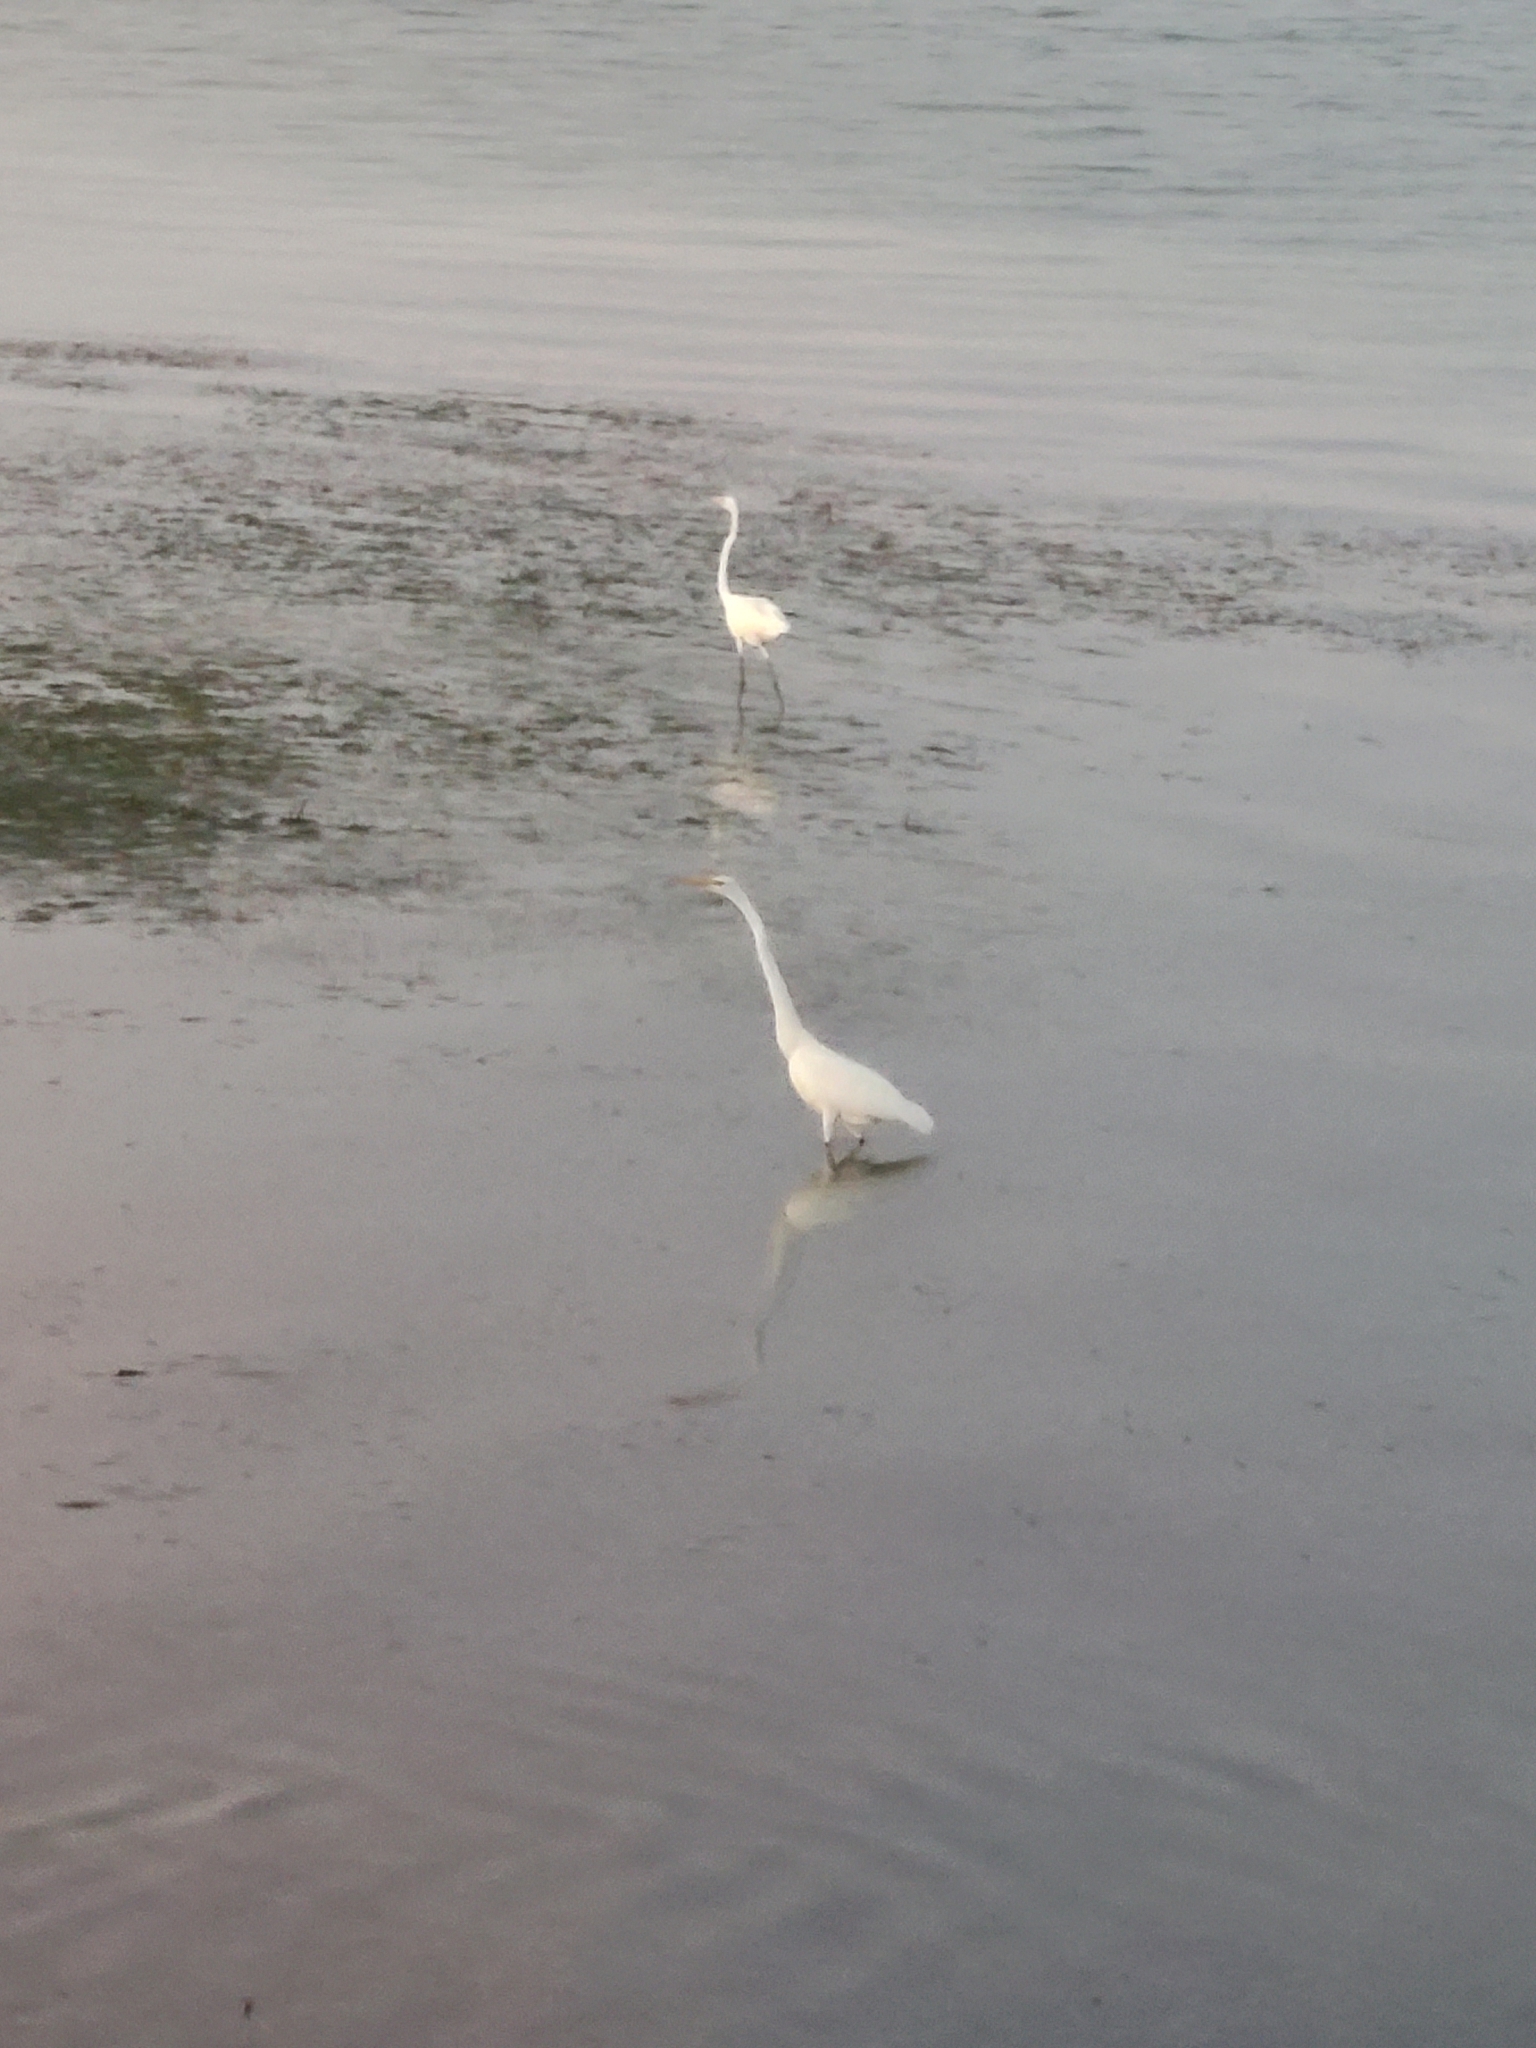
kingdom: Animalia
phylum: Chordata
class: Aves
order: Pelecaniformes
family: Ardeidae
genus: Ardea
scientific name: Ardea alba
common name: Great egret
